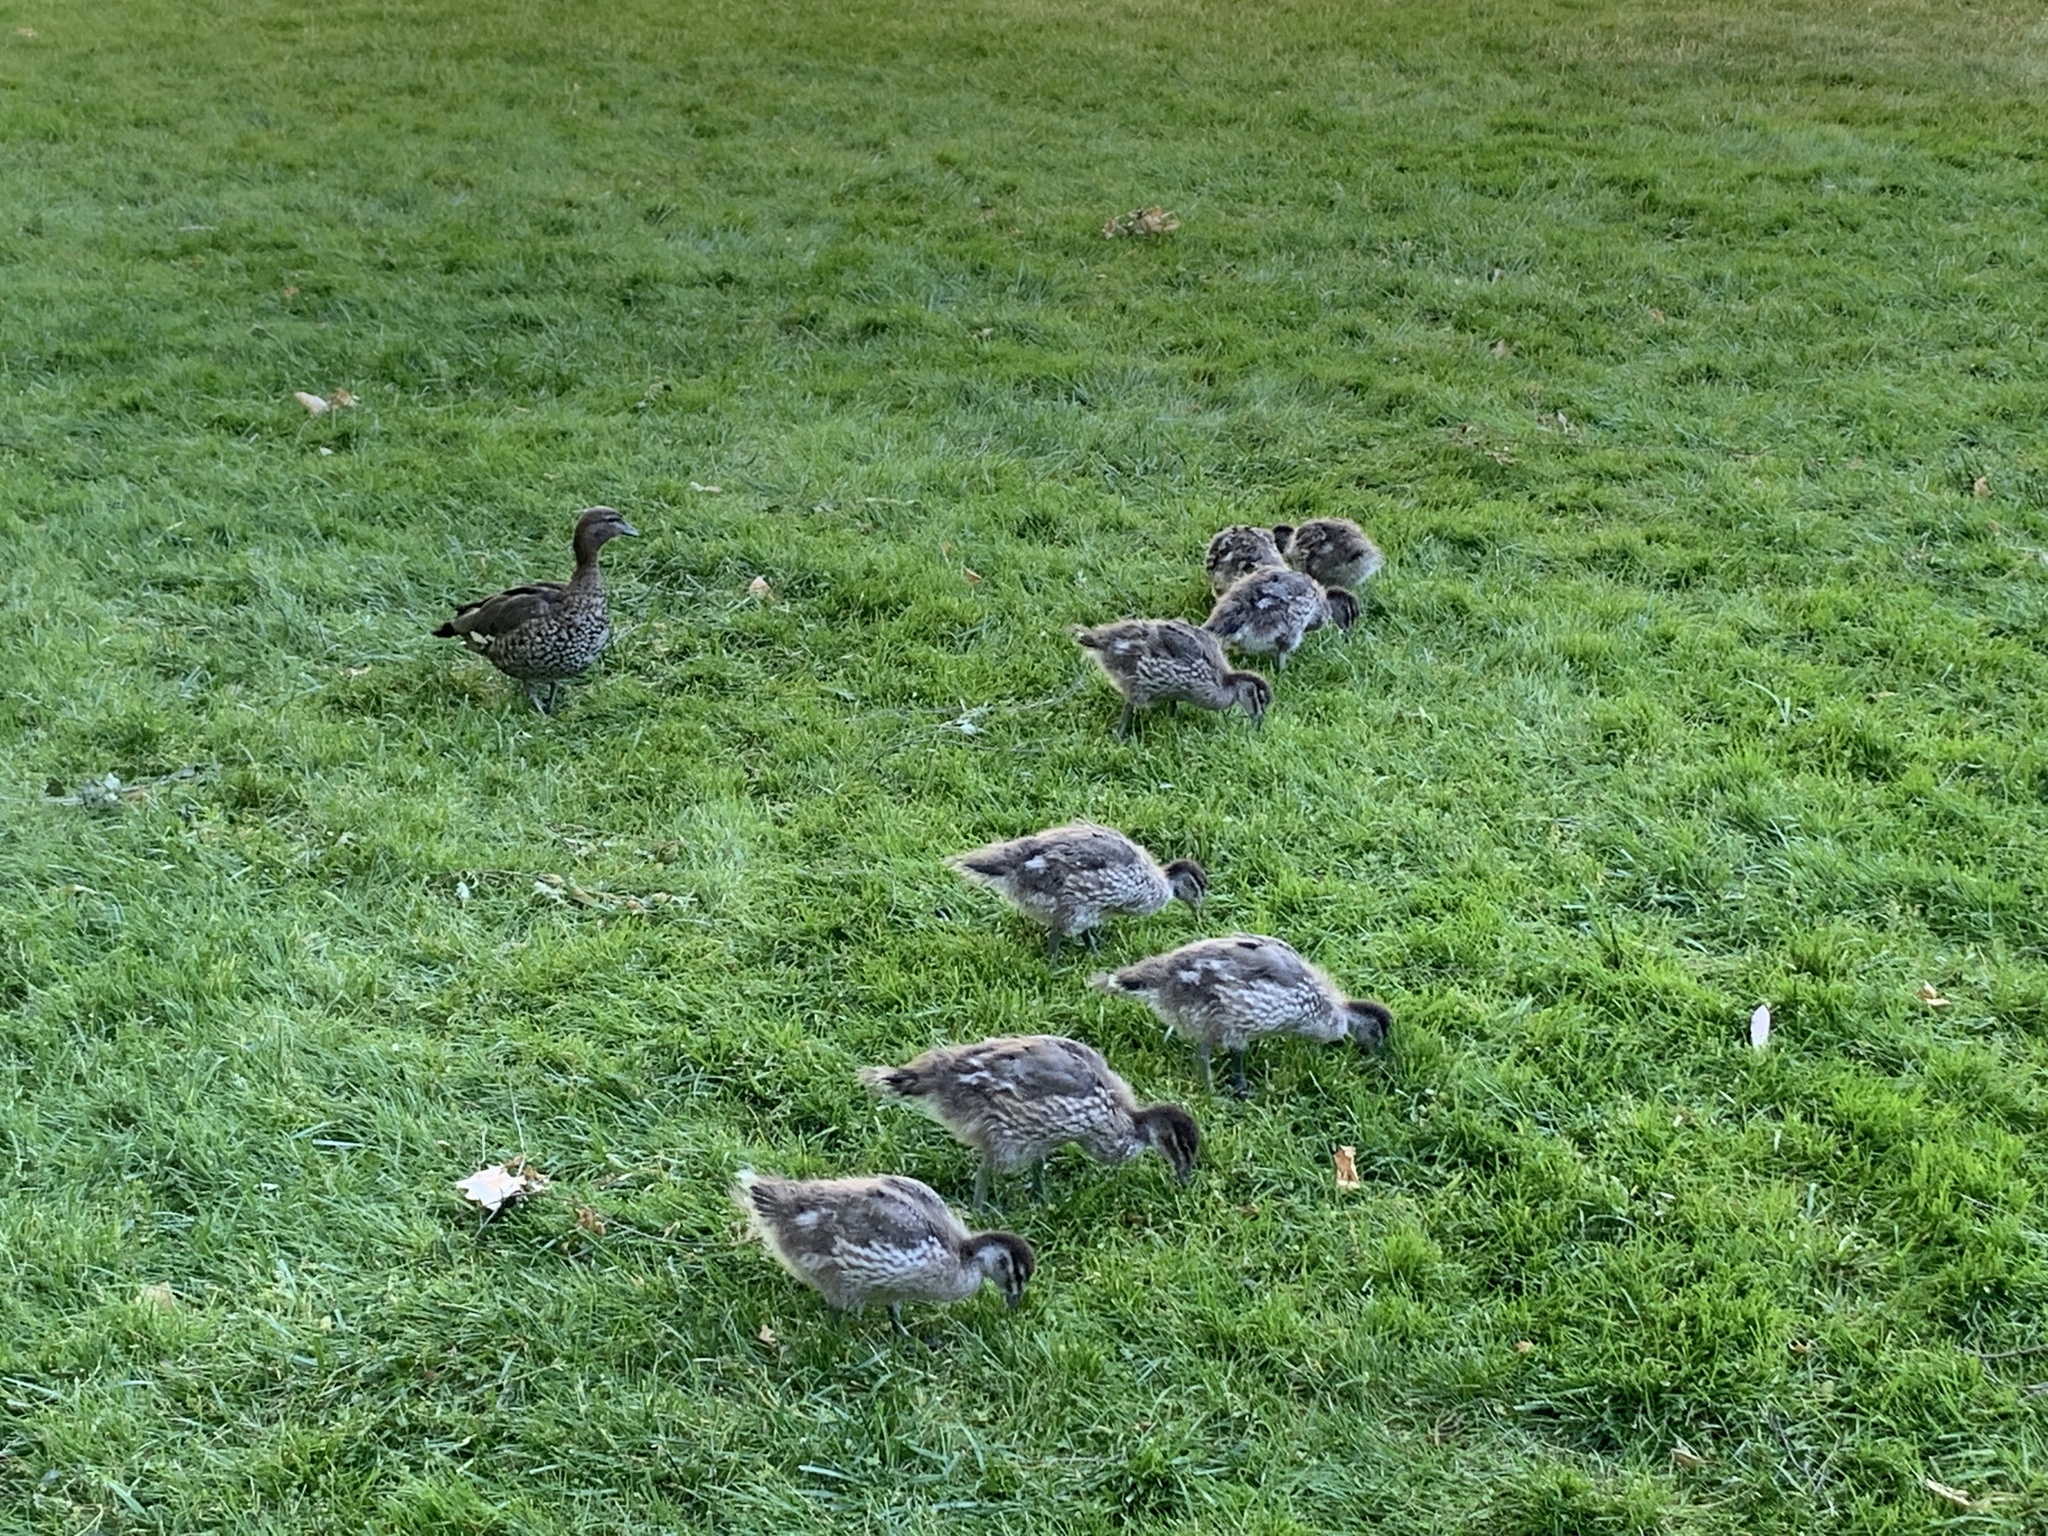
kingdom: Animalia
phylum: Chordata
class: Aves
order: Anseriformes
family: Anatidae
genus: Chenonetta
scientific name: Chenonetta jubata
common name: Maned duck
